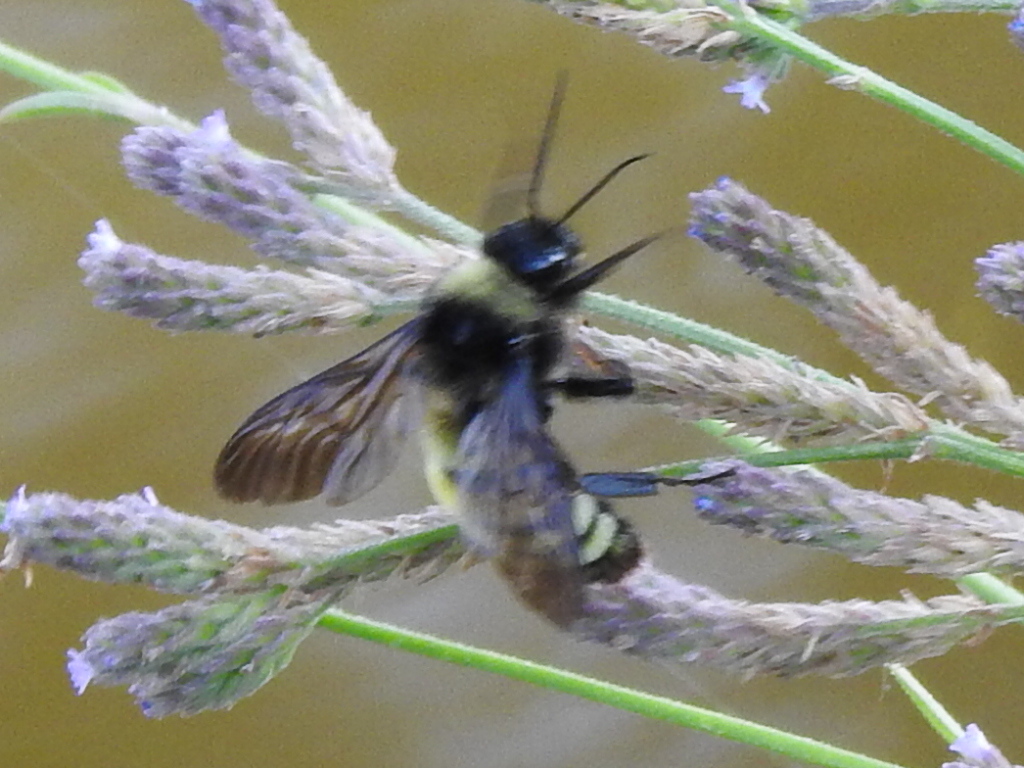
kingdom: Animalia
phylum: Arthropoda
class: Insecta
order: Hymenoptera
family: Apidae
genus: Bombus
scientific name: Bombus pensylvanicus
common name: Bumble bee
